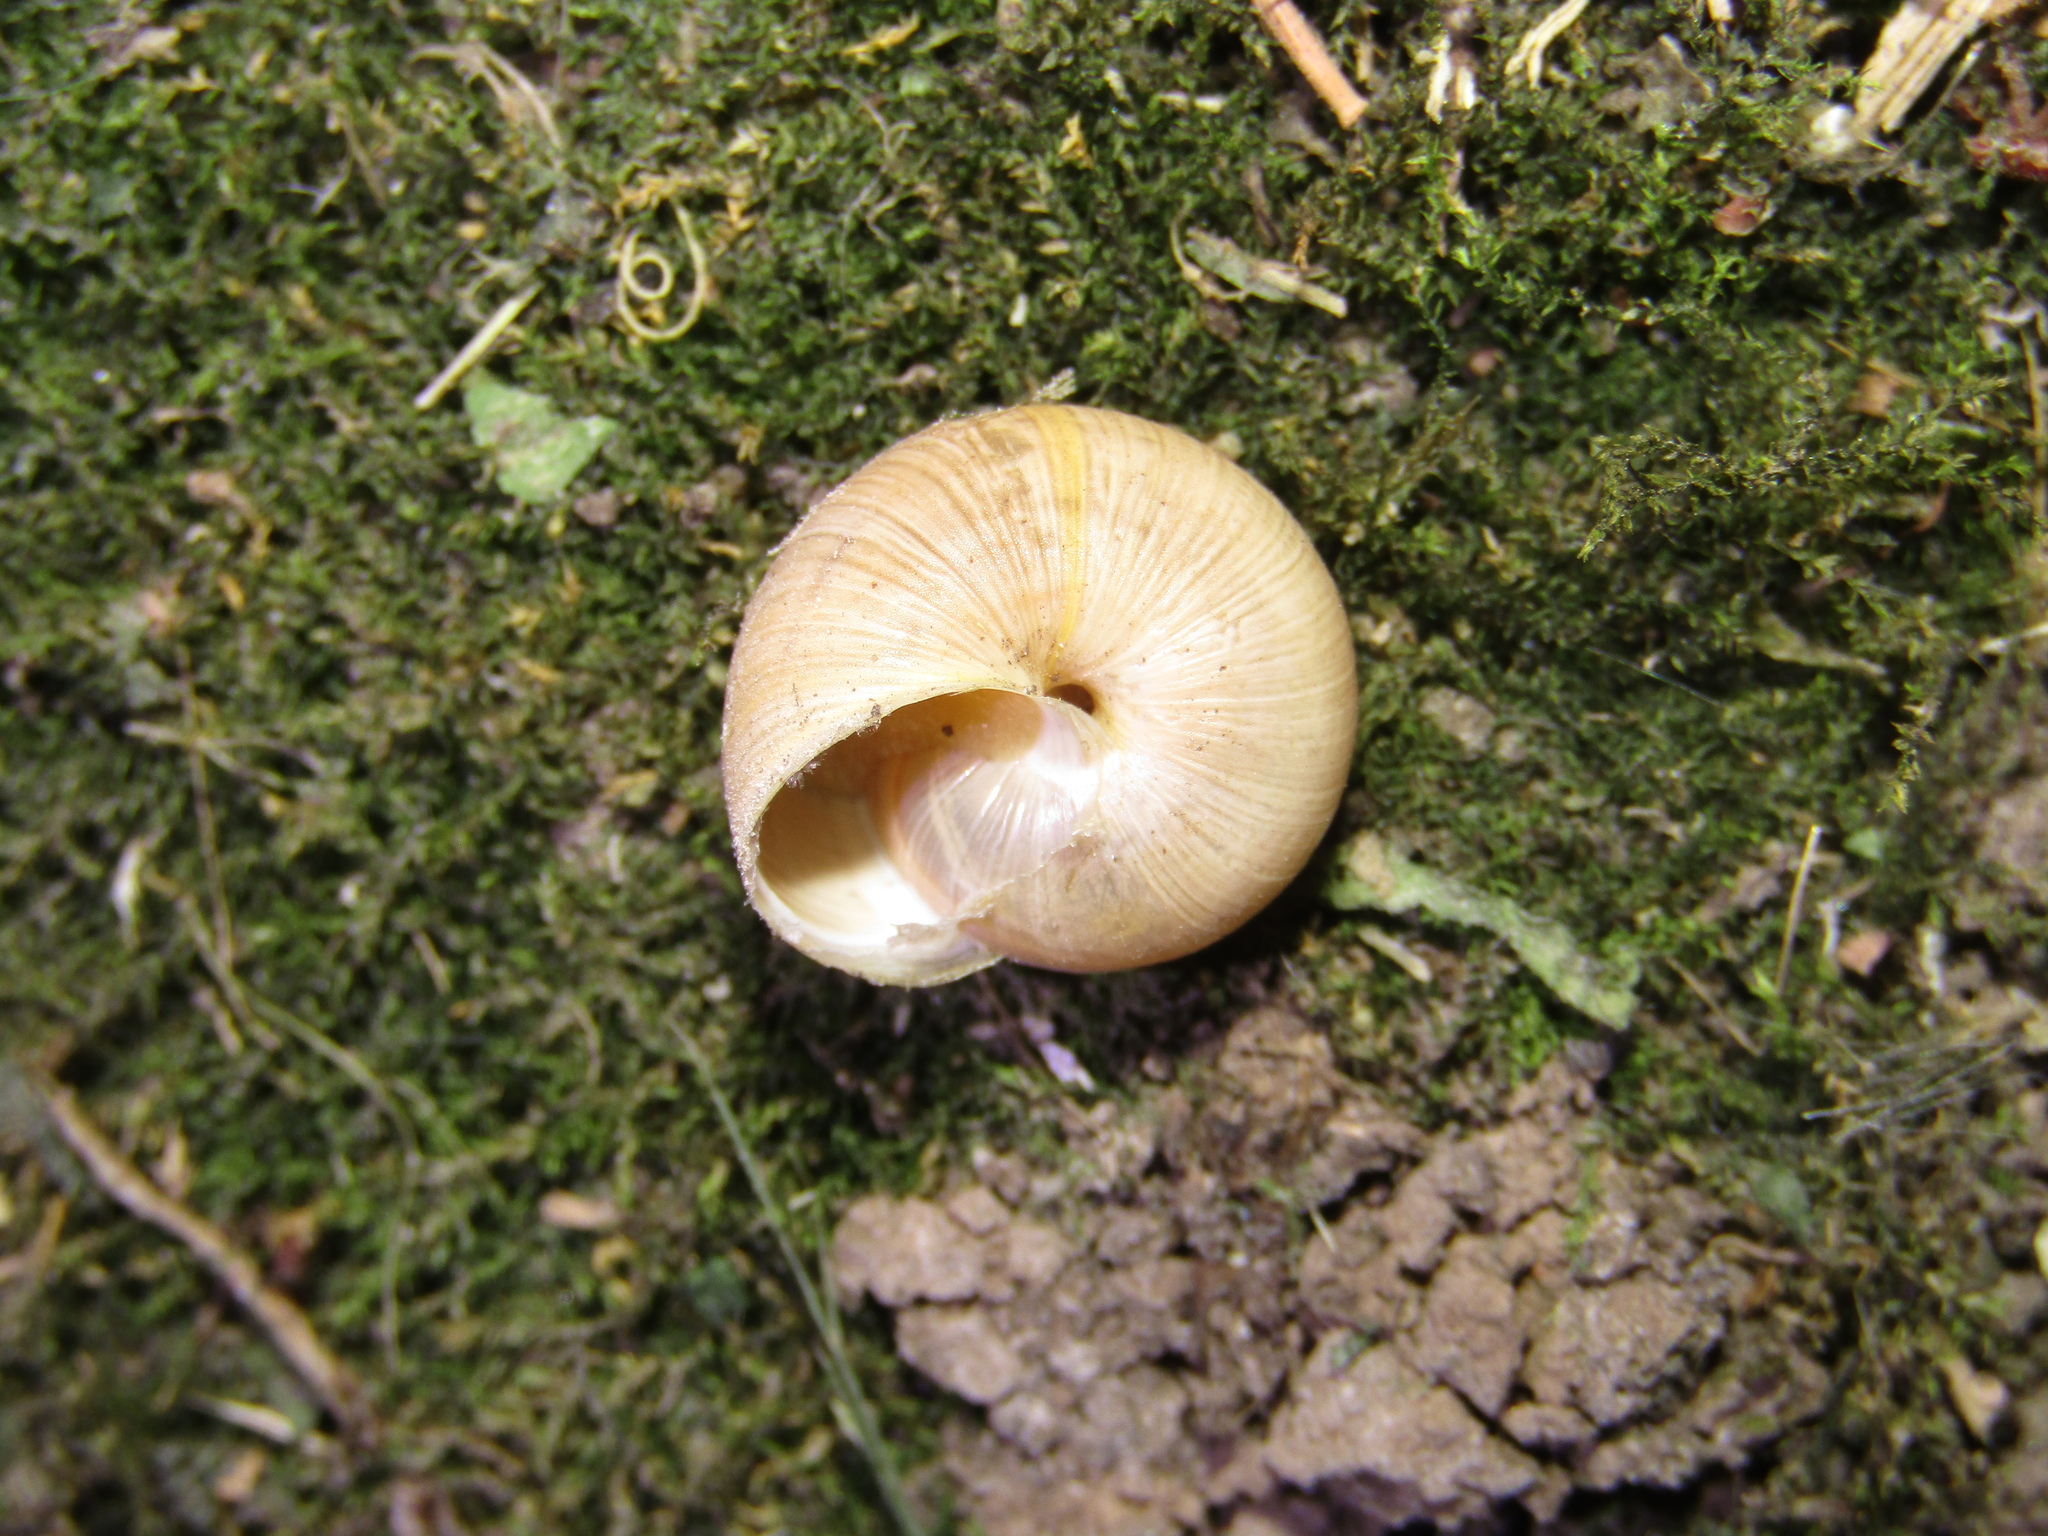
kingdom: Animalia
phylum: Mollusca
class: Gastropoda
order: Stylommatophora
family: Hygromiidae
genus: Harmozica
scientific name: Harmozica ravergiensis
